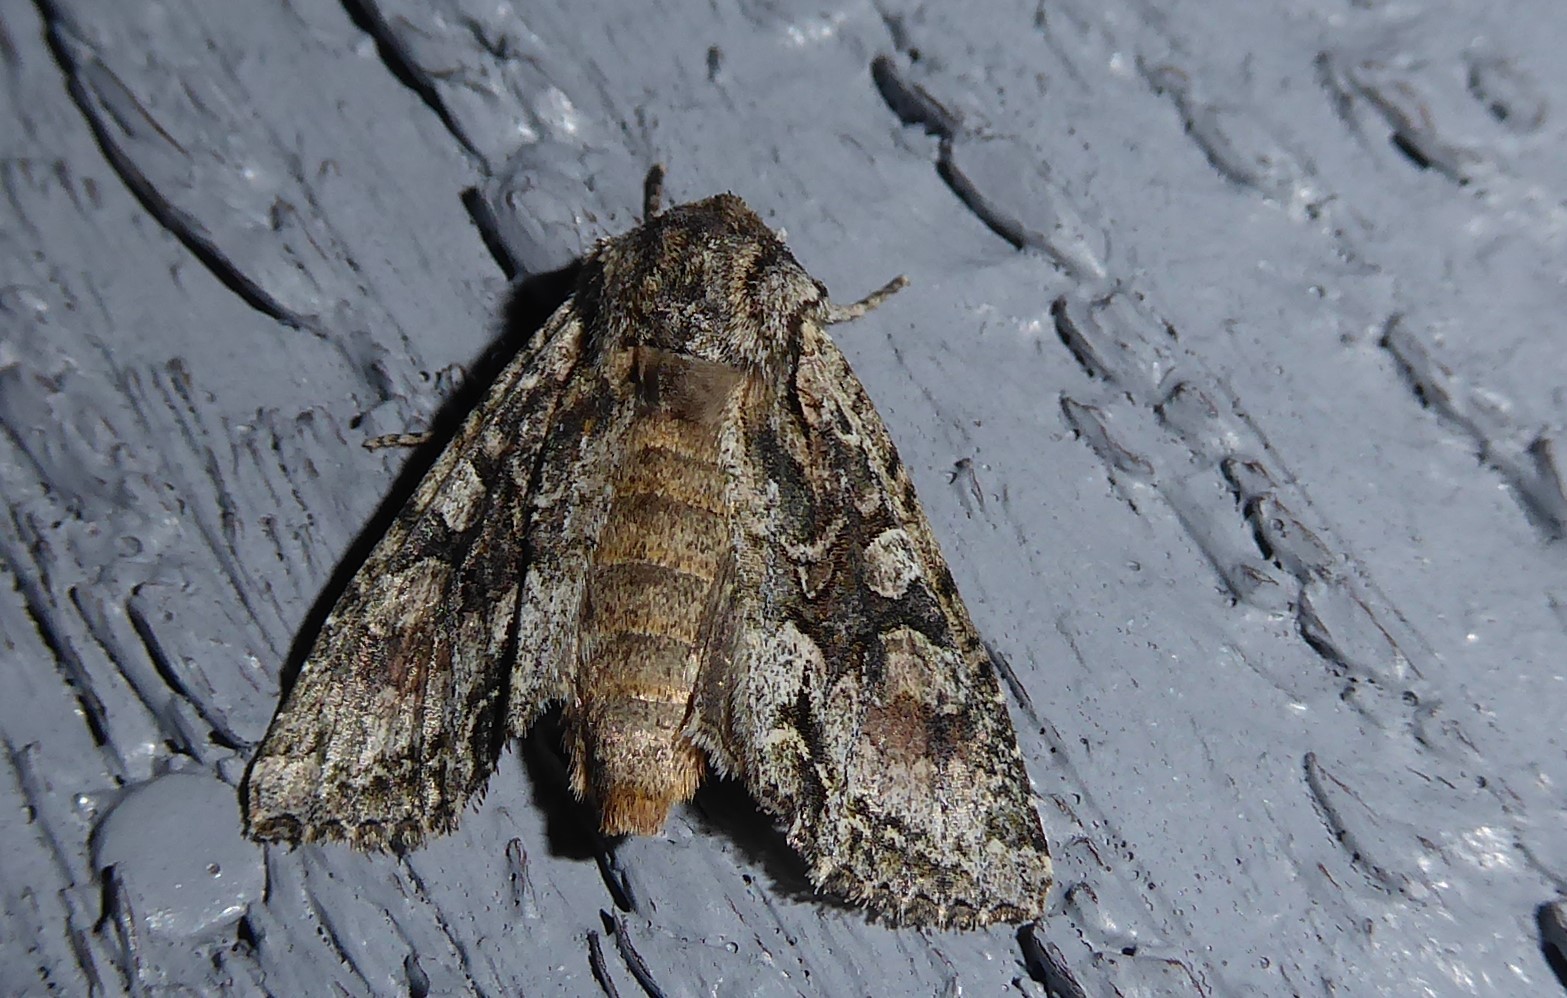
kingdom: Animalia
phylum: Arthropoda
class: Insecta
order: Lepidoptera
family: Noctuidae
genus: Ichneutica
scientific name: Ichneutica mutans
